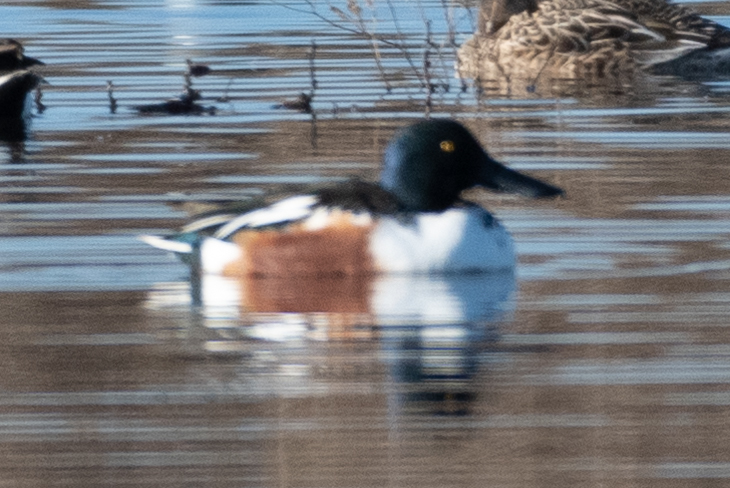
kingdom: Animalia
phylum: Chordata
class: Aves
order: Anseriformes
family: Anatidae
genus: Spatula
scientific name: Spatula clypeata
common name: Northern shoveler
